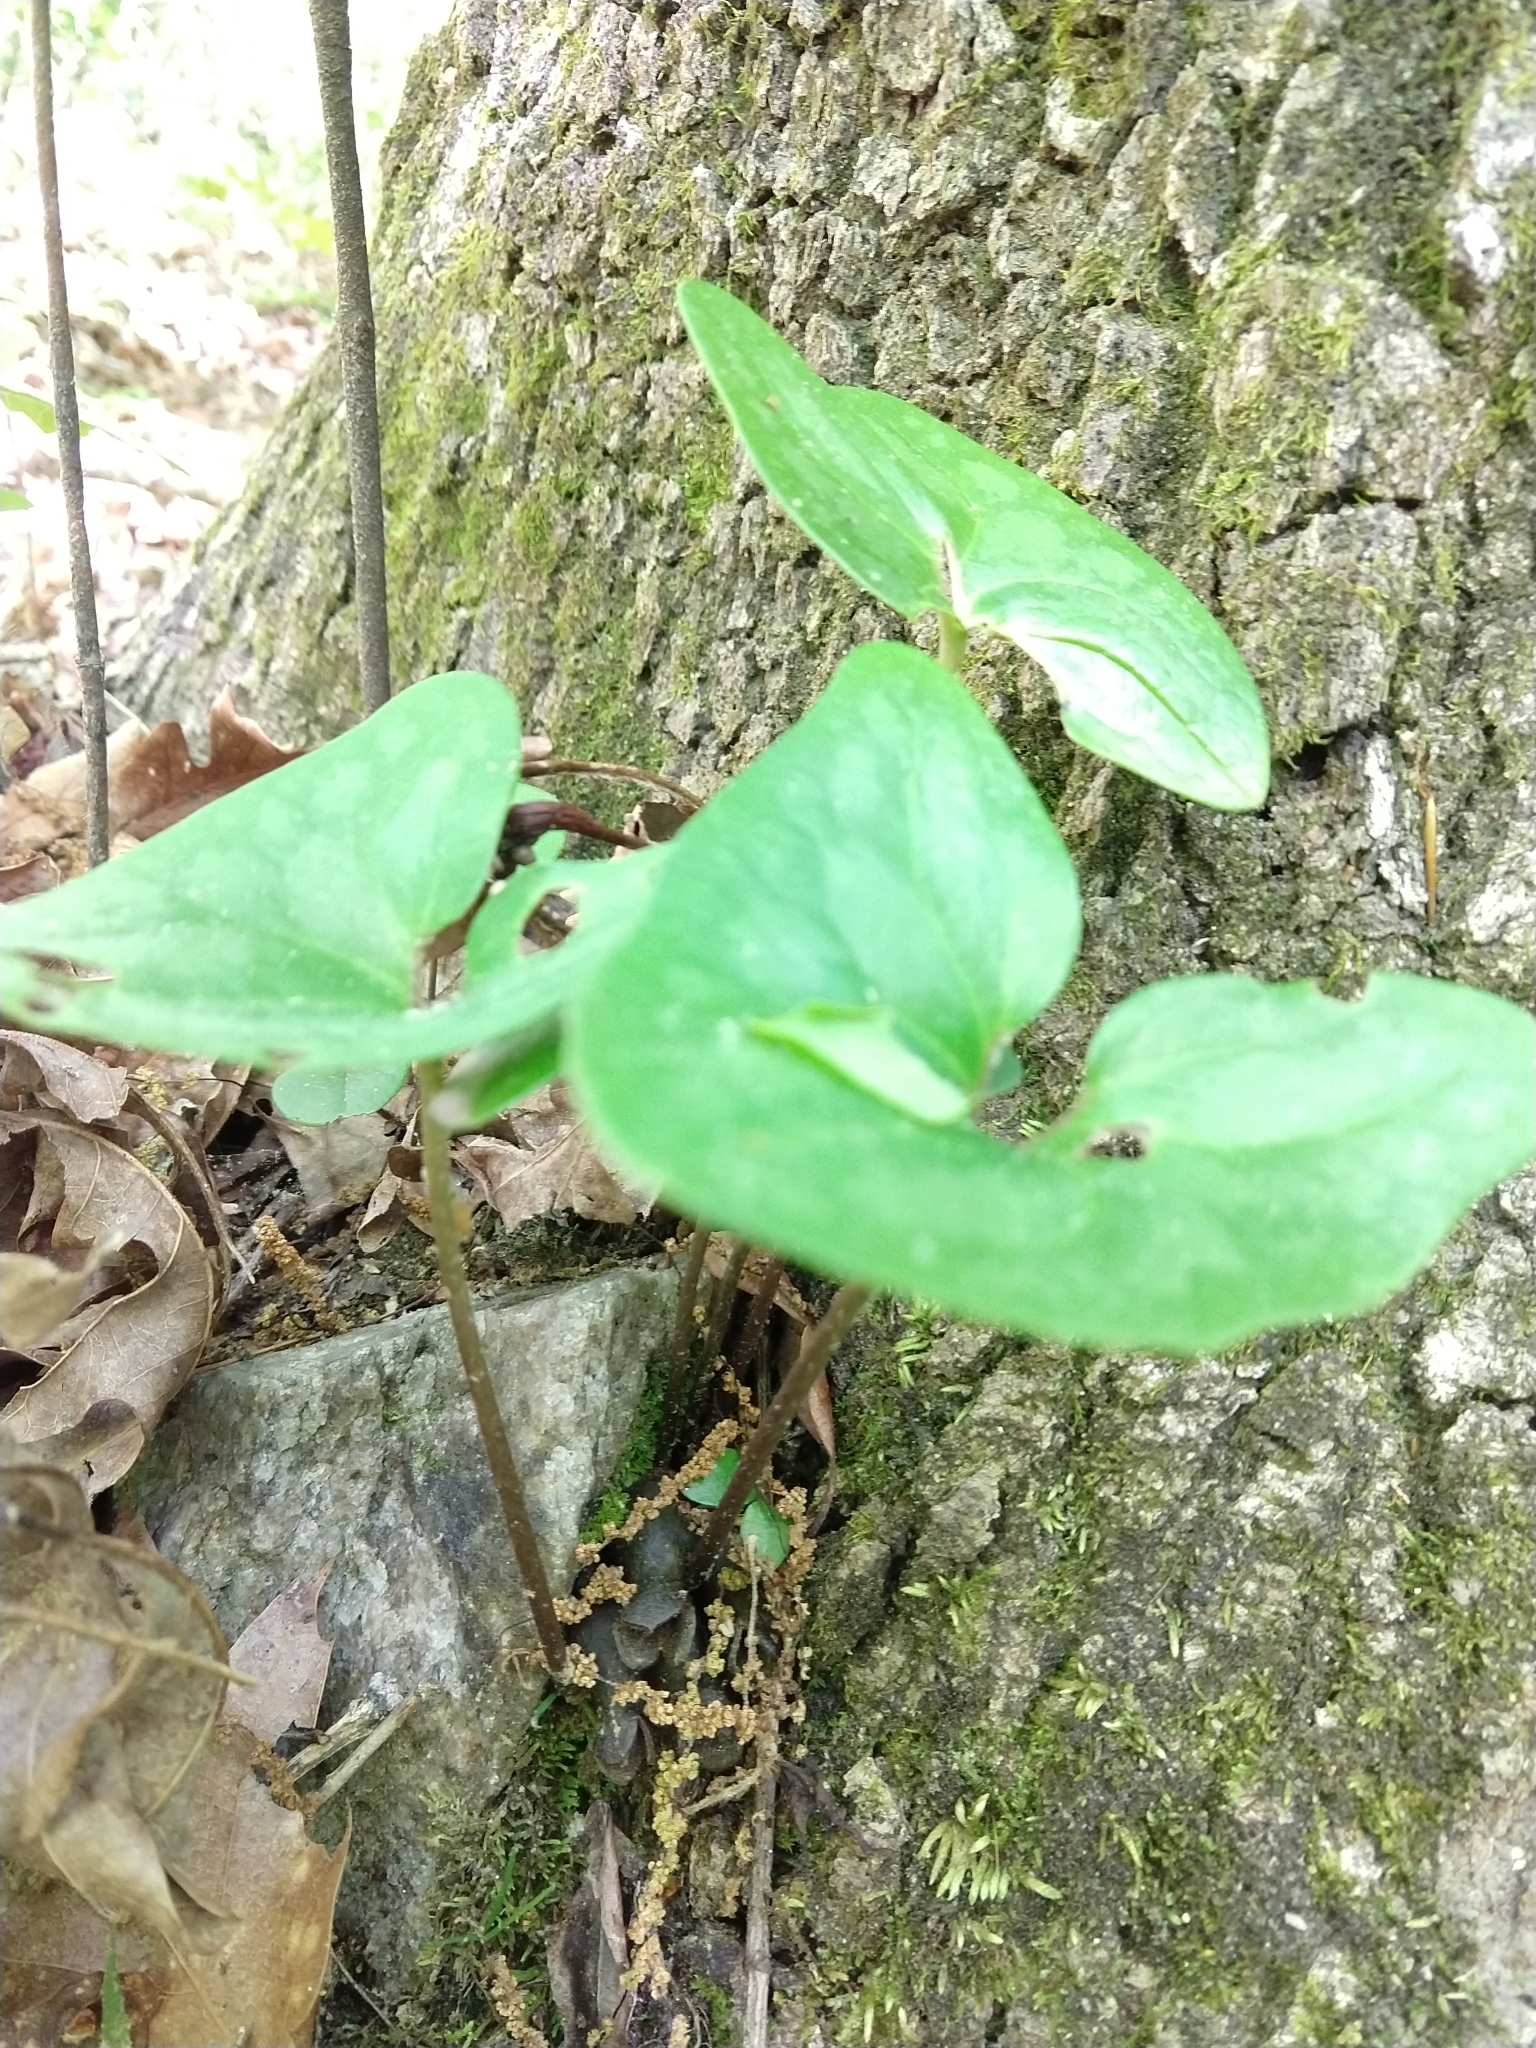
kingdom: Plantae
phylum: Tracheophyta
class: Magnoliopsida
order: Piperales
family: Aristolochiaceae
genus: Hexastylis
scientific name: Hexastylis arifolia
